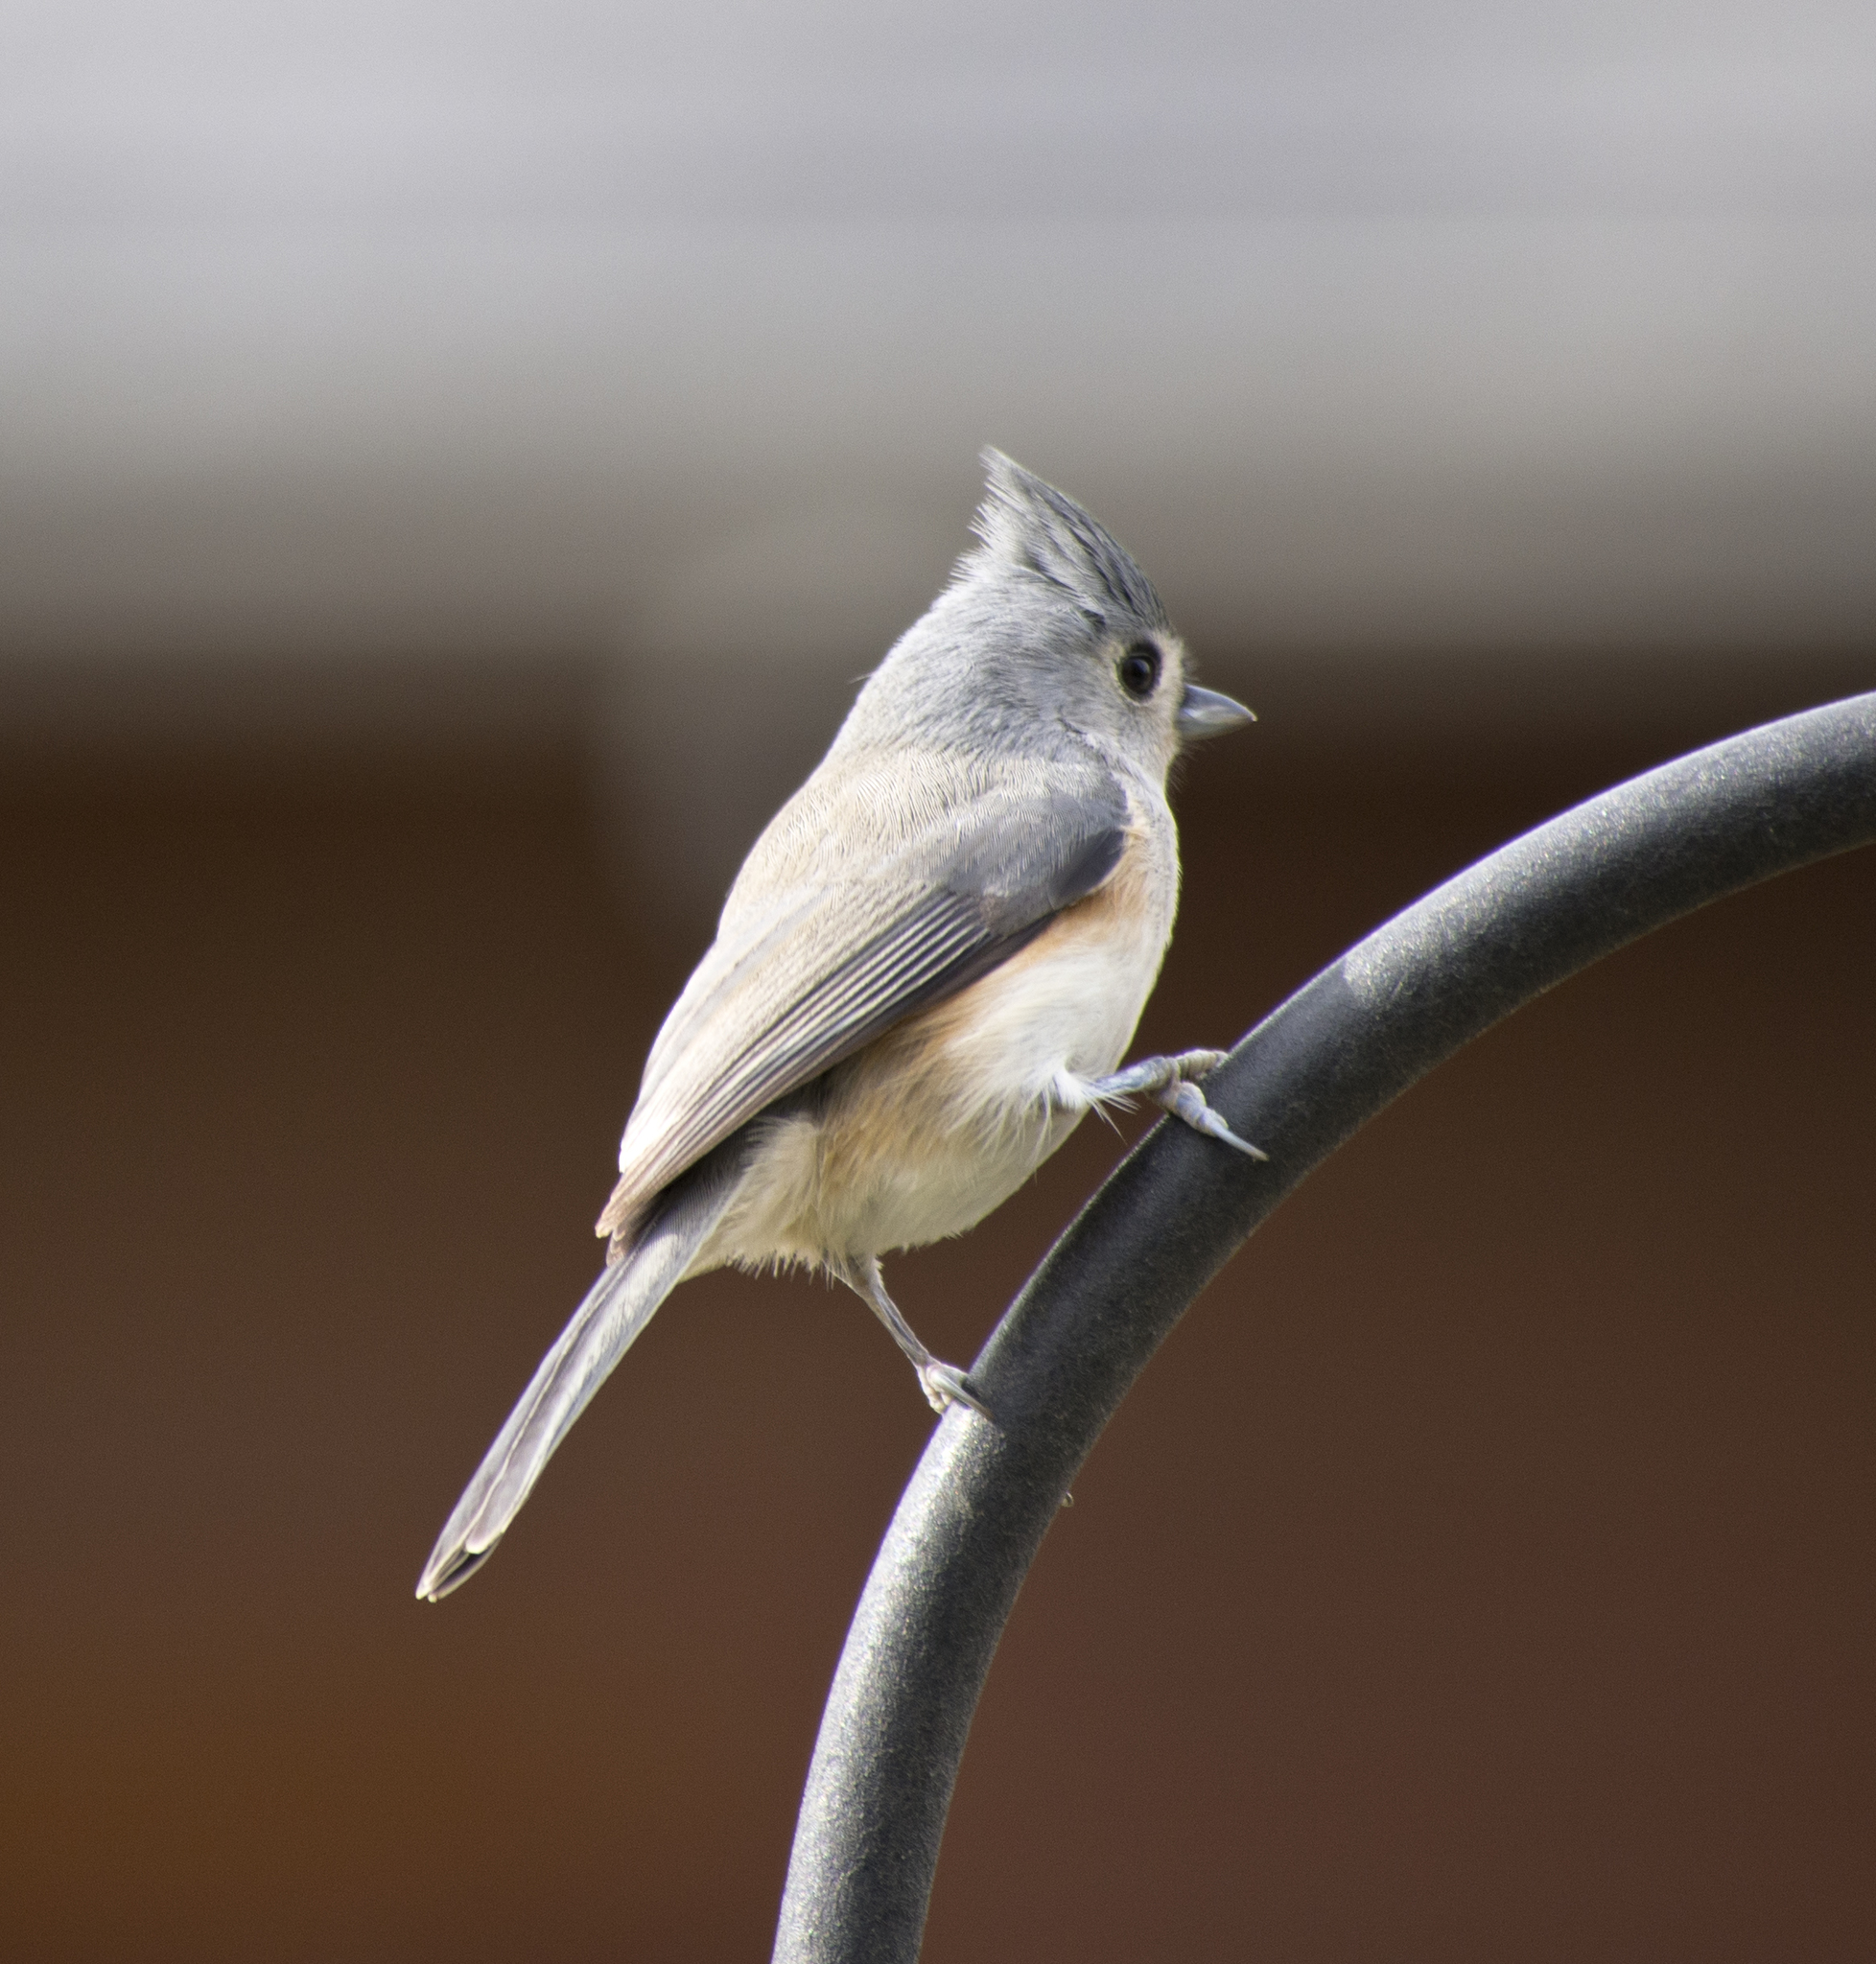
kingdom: Animalia
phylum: Chordata
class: Aves
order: Passeriformes
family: Paridae
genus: Baeolophus
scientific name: Baeolophus bicolor
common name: Tufted titmouse
